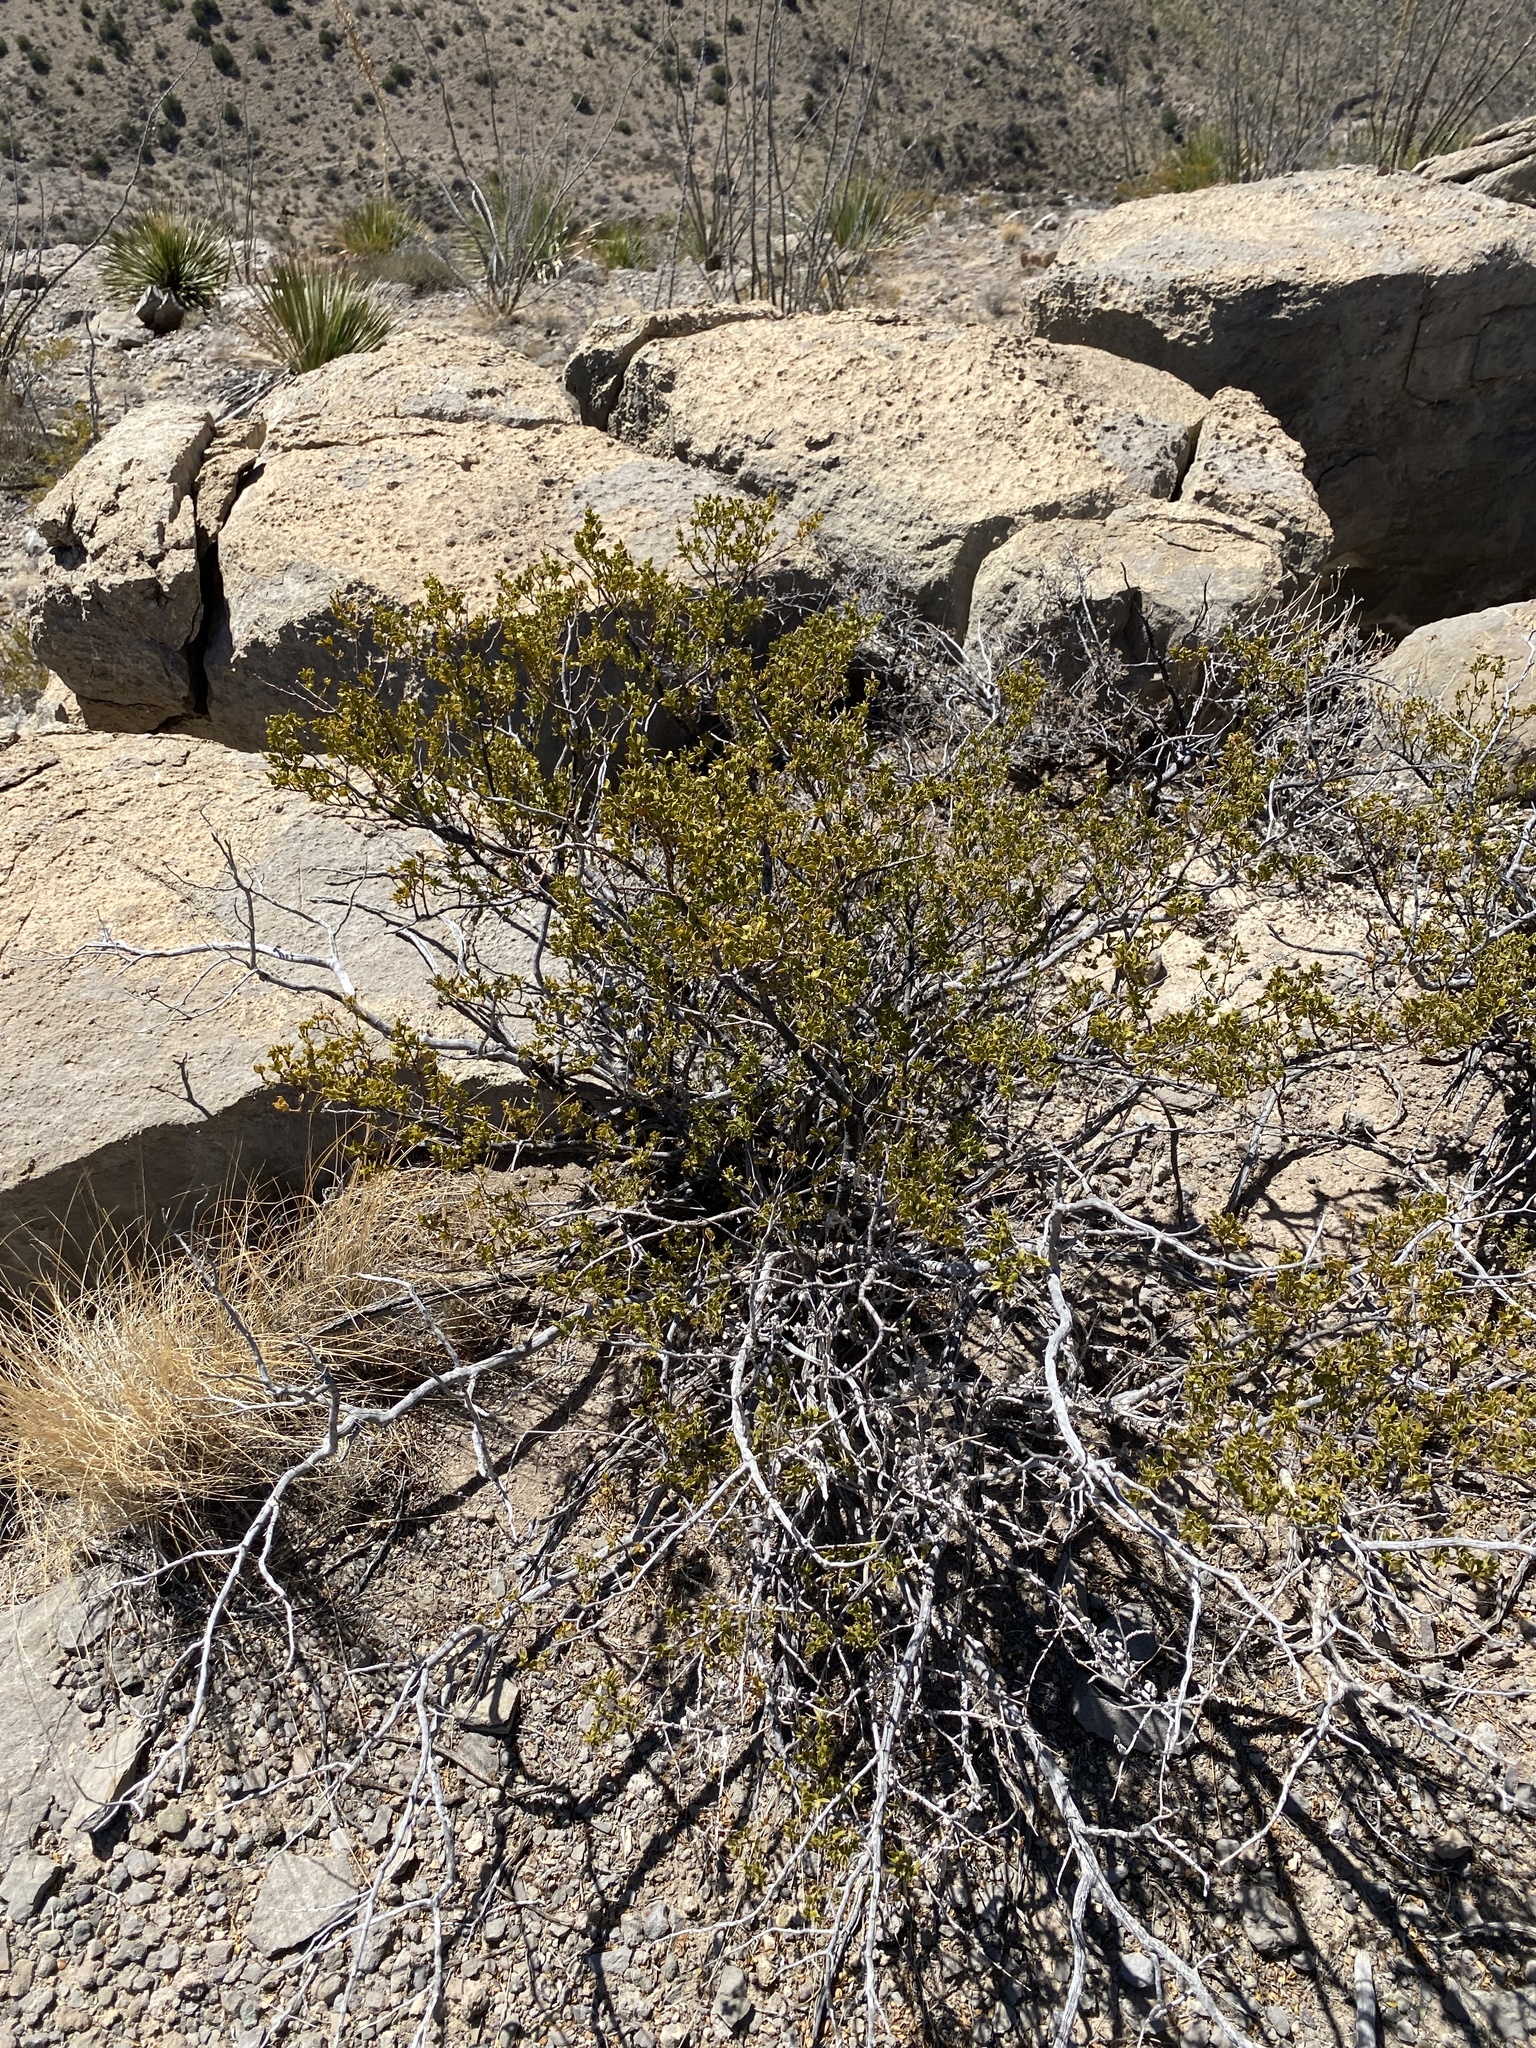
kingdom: Plantae
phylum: Tracheophyta
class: Magnoliopsida
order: Zygophyllales
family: Zygophyllaceae
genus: Larrea
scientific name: Larrea tridentata
